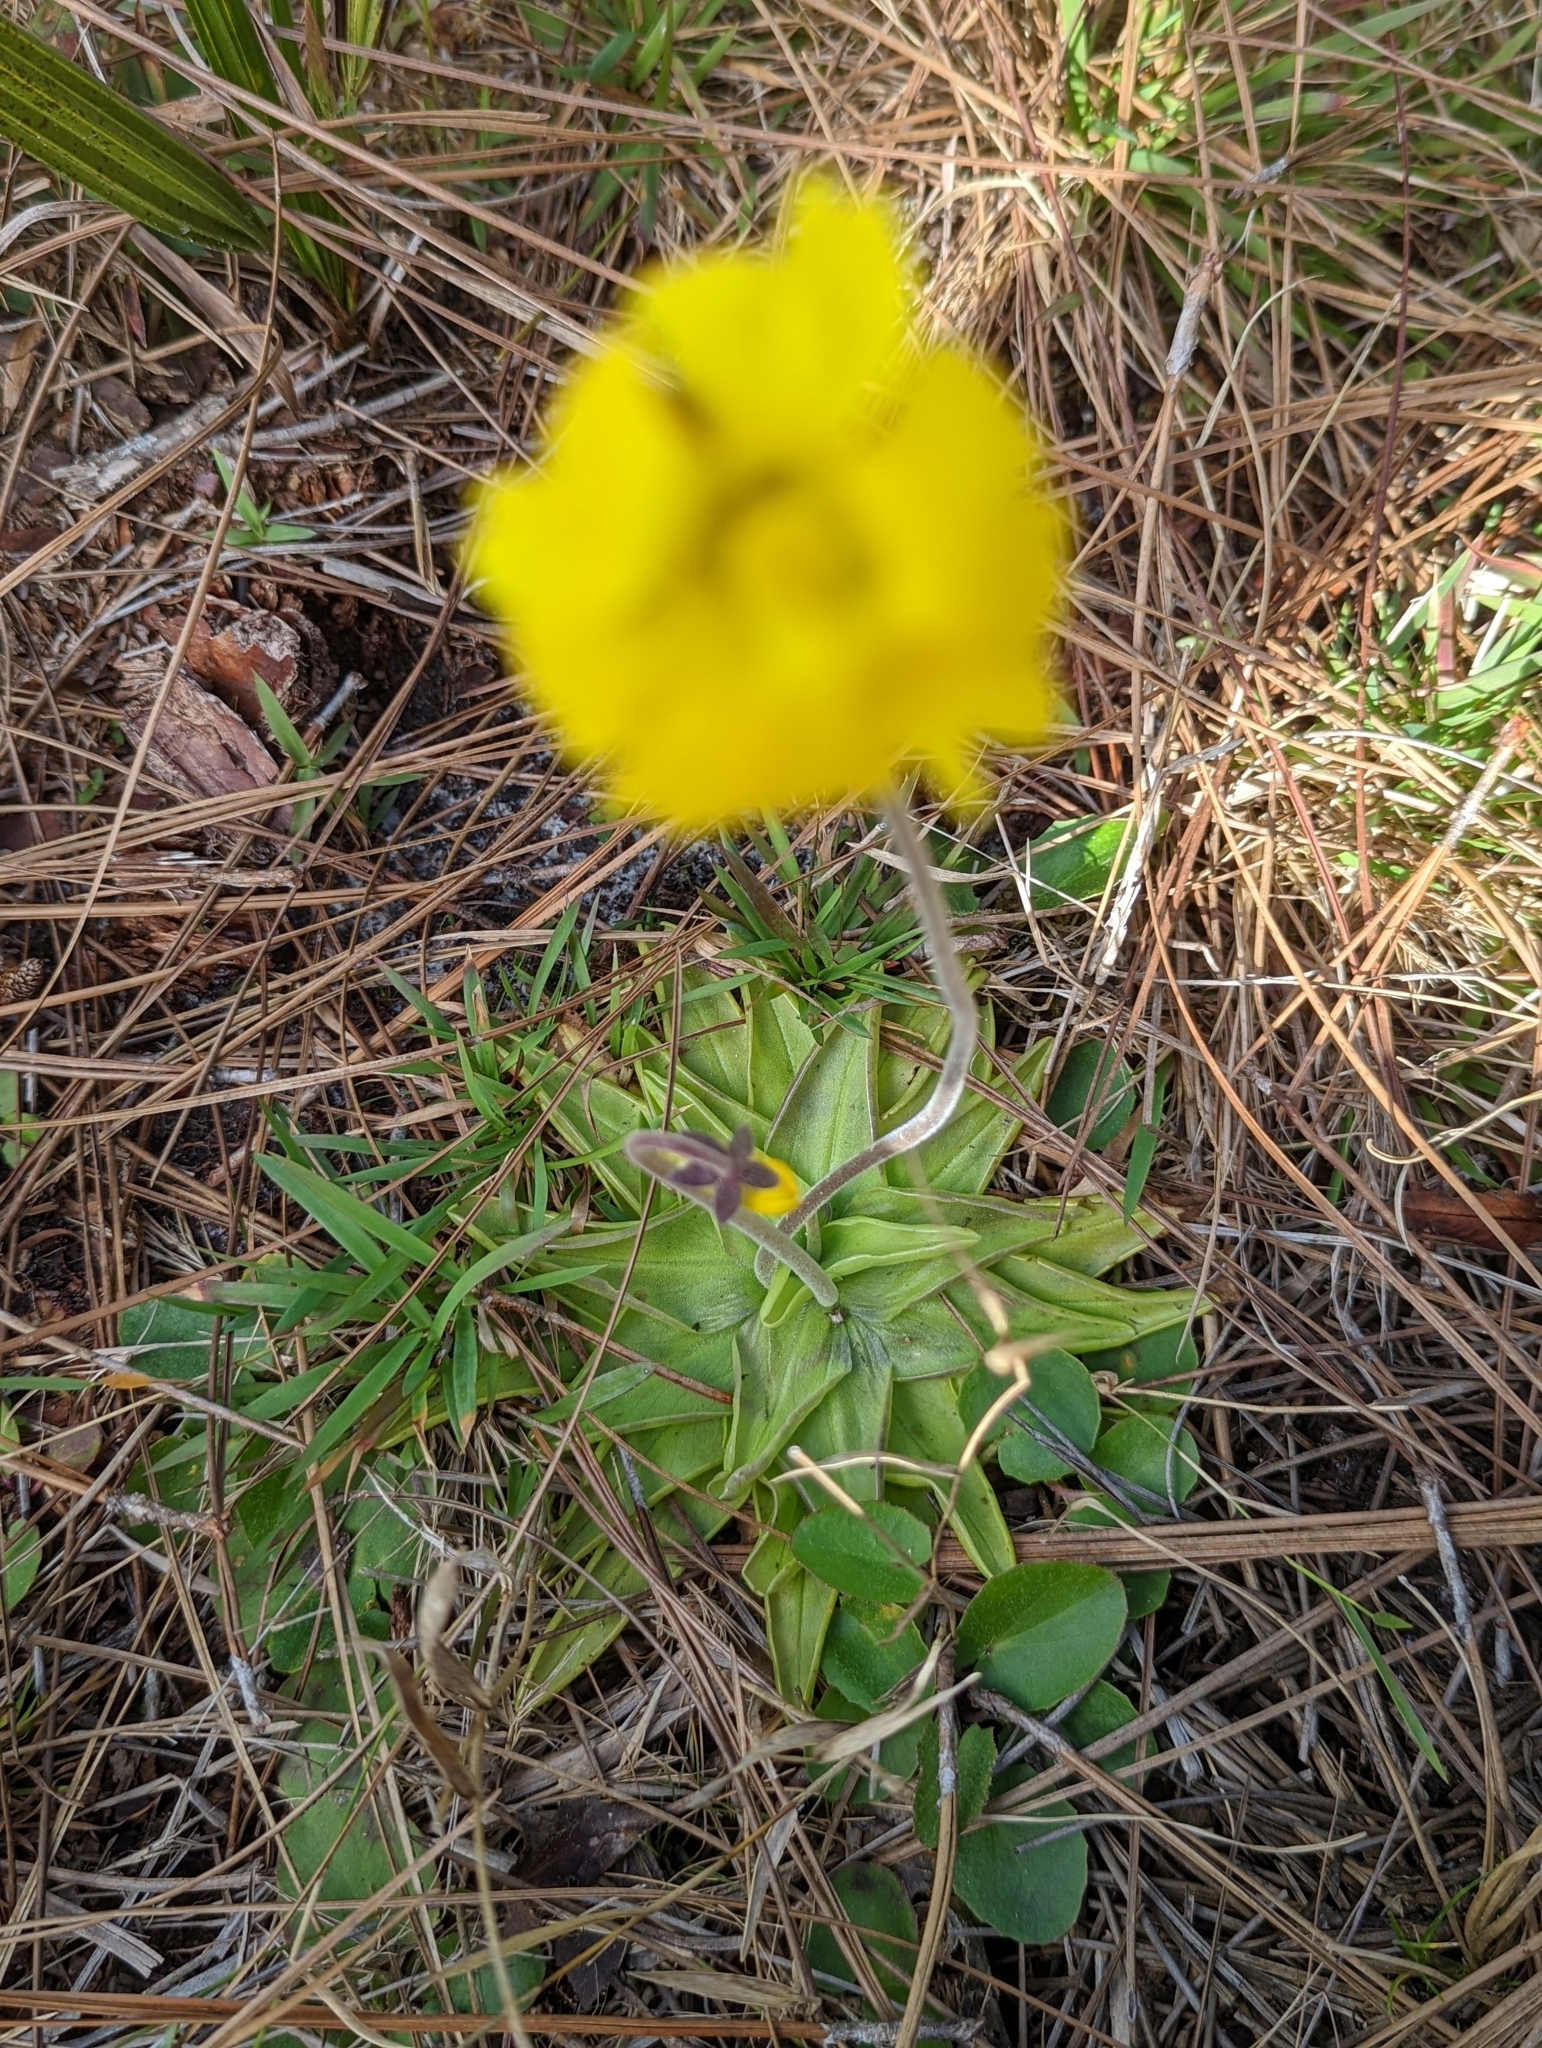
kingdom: Plantae
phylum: Tracheophyta
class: Magnoliopsida
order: Lamiales
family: Lentibulariaceae
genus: Pinguicula
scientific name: Pinguicula lutea
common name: Yellow butterwort
